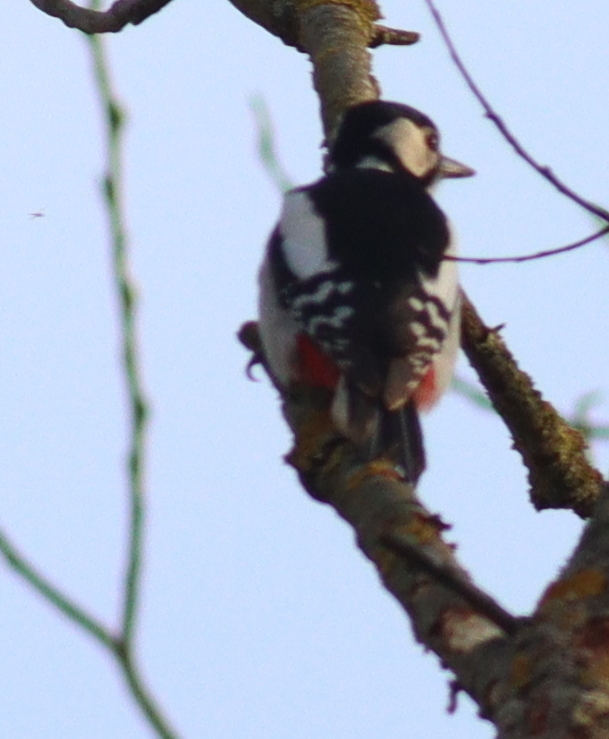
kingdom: Animalia
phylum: Chordata
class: Aves
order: Piciformes
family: Picidae
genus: Dendrocopos
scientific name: Dendrocopos major
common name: Great spotted woodpecker
